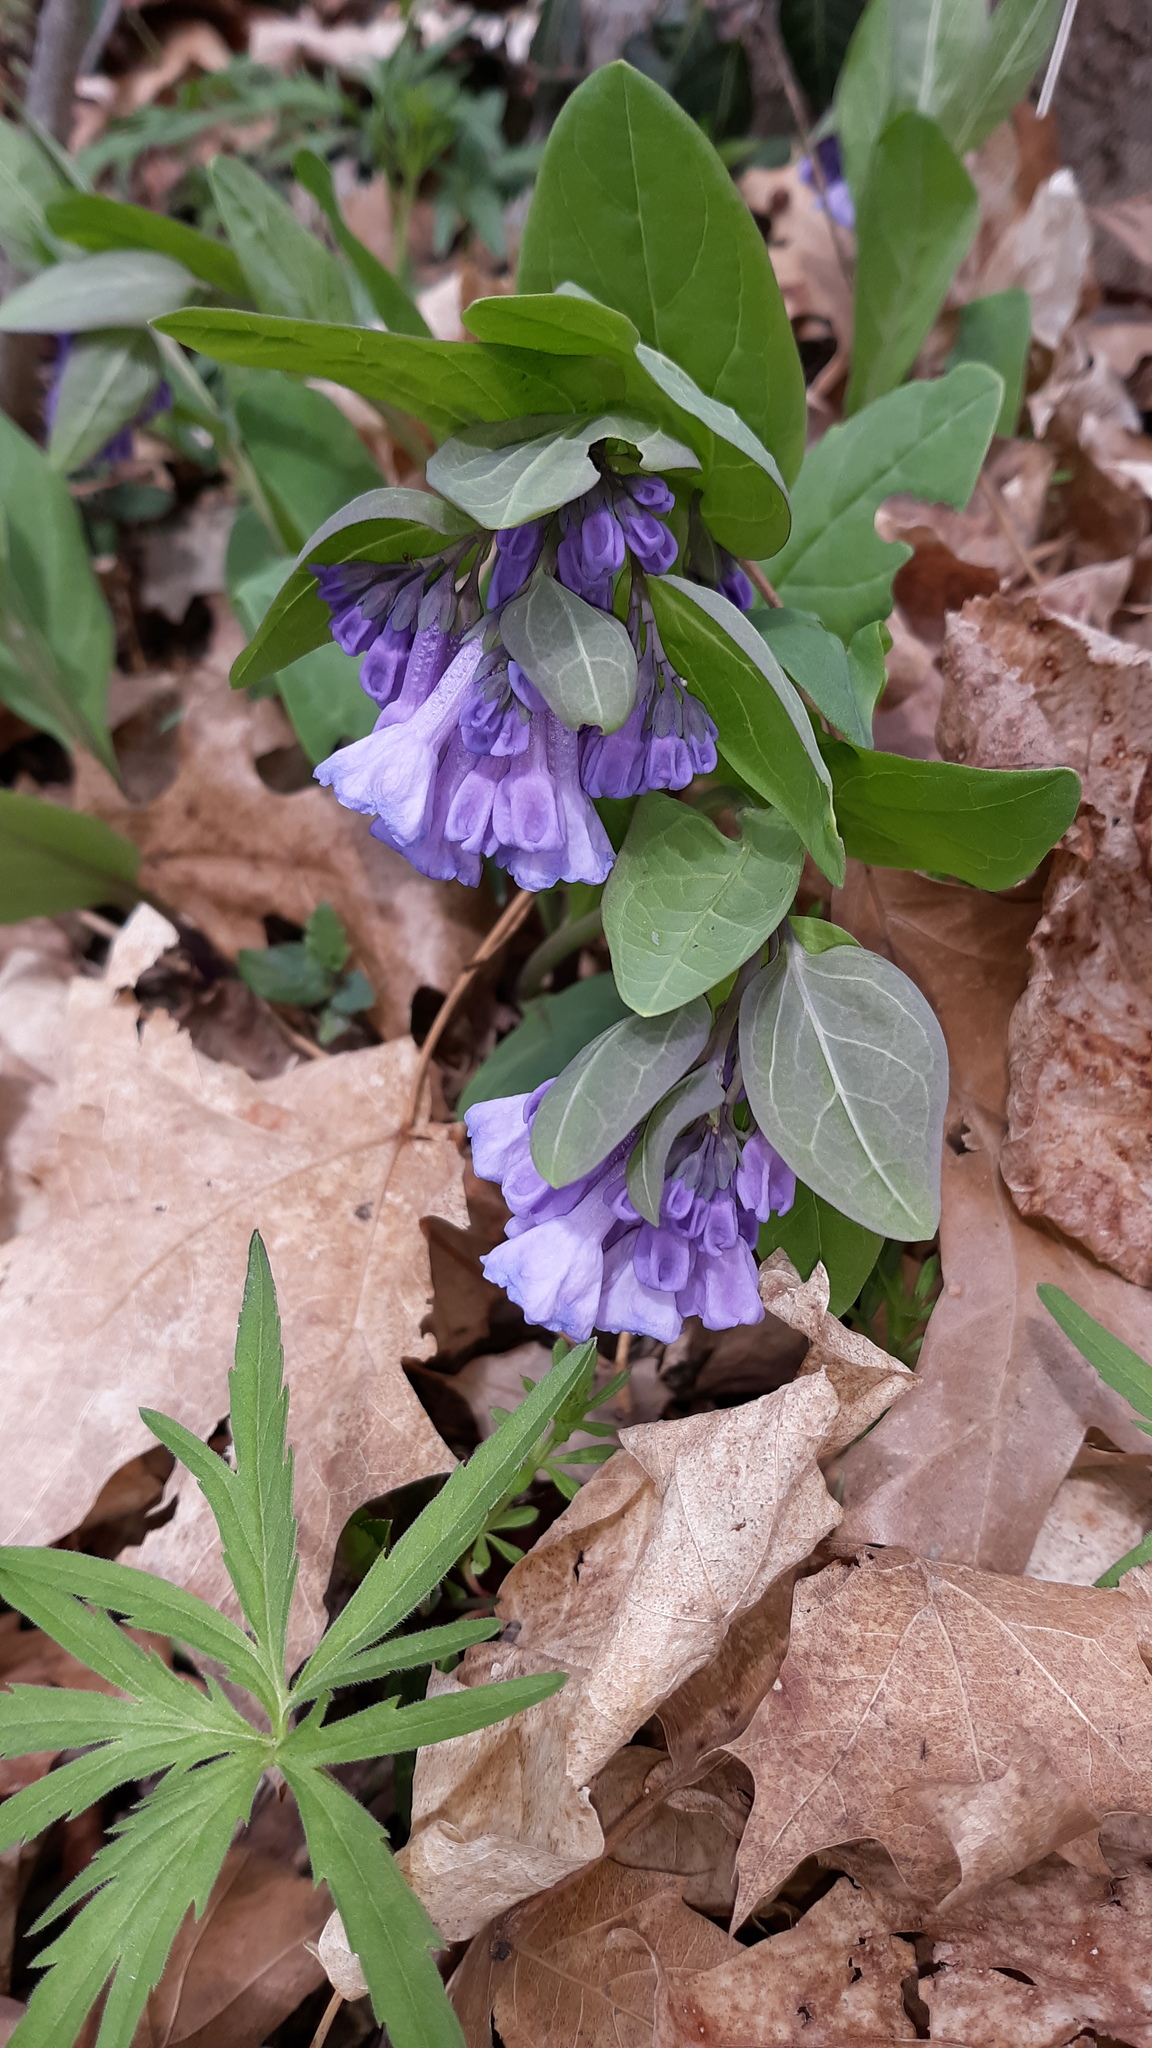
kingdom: Plantae
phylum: Tracheophyta
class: Magnoliopsida
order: Boraginales
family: Boraginaceae
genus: Mertensia
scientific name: Mertensia virginica
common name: Virginia bluebells
